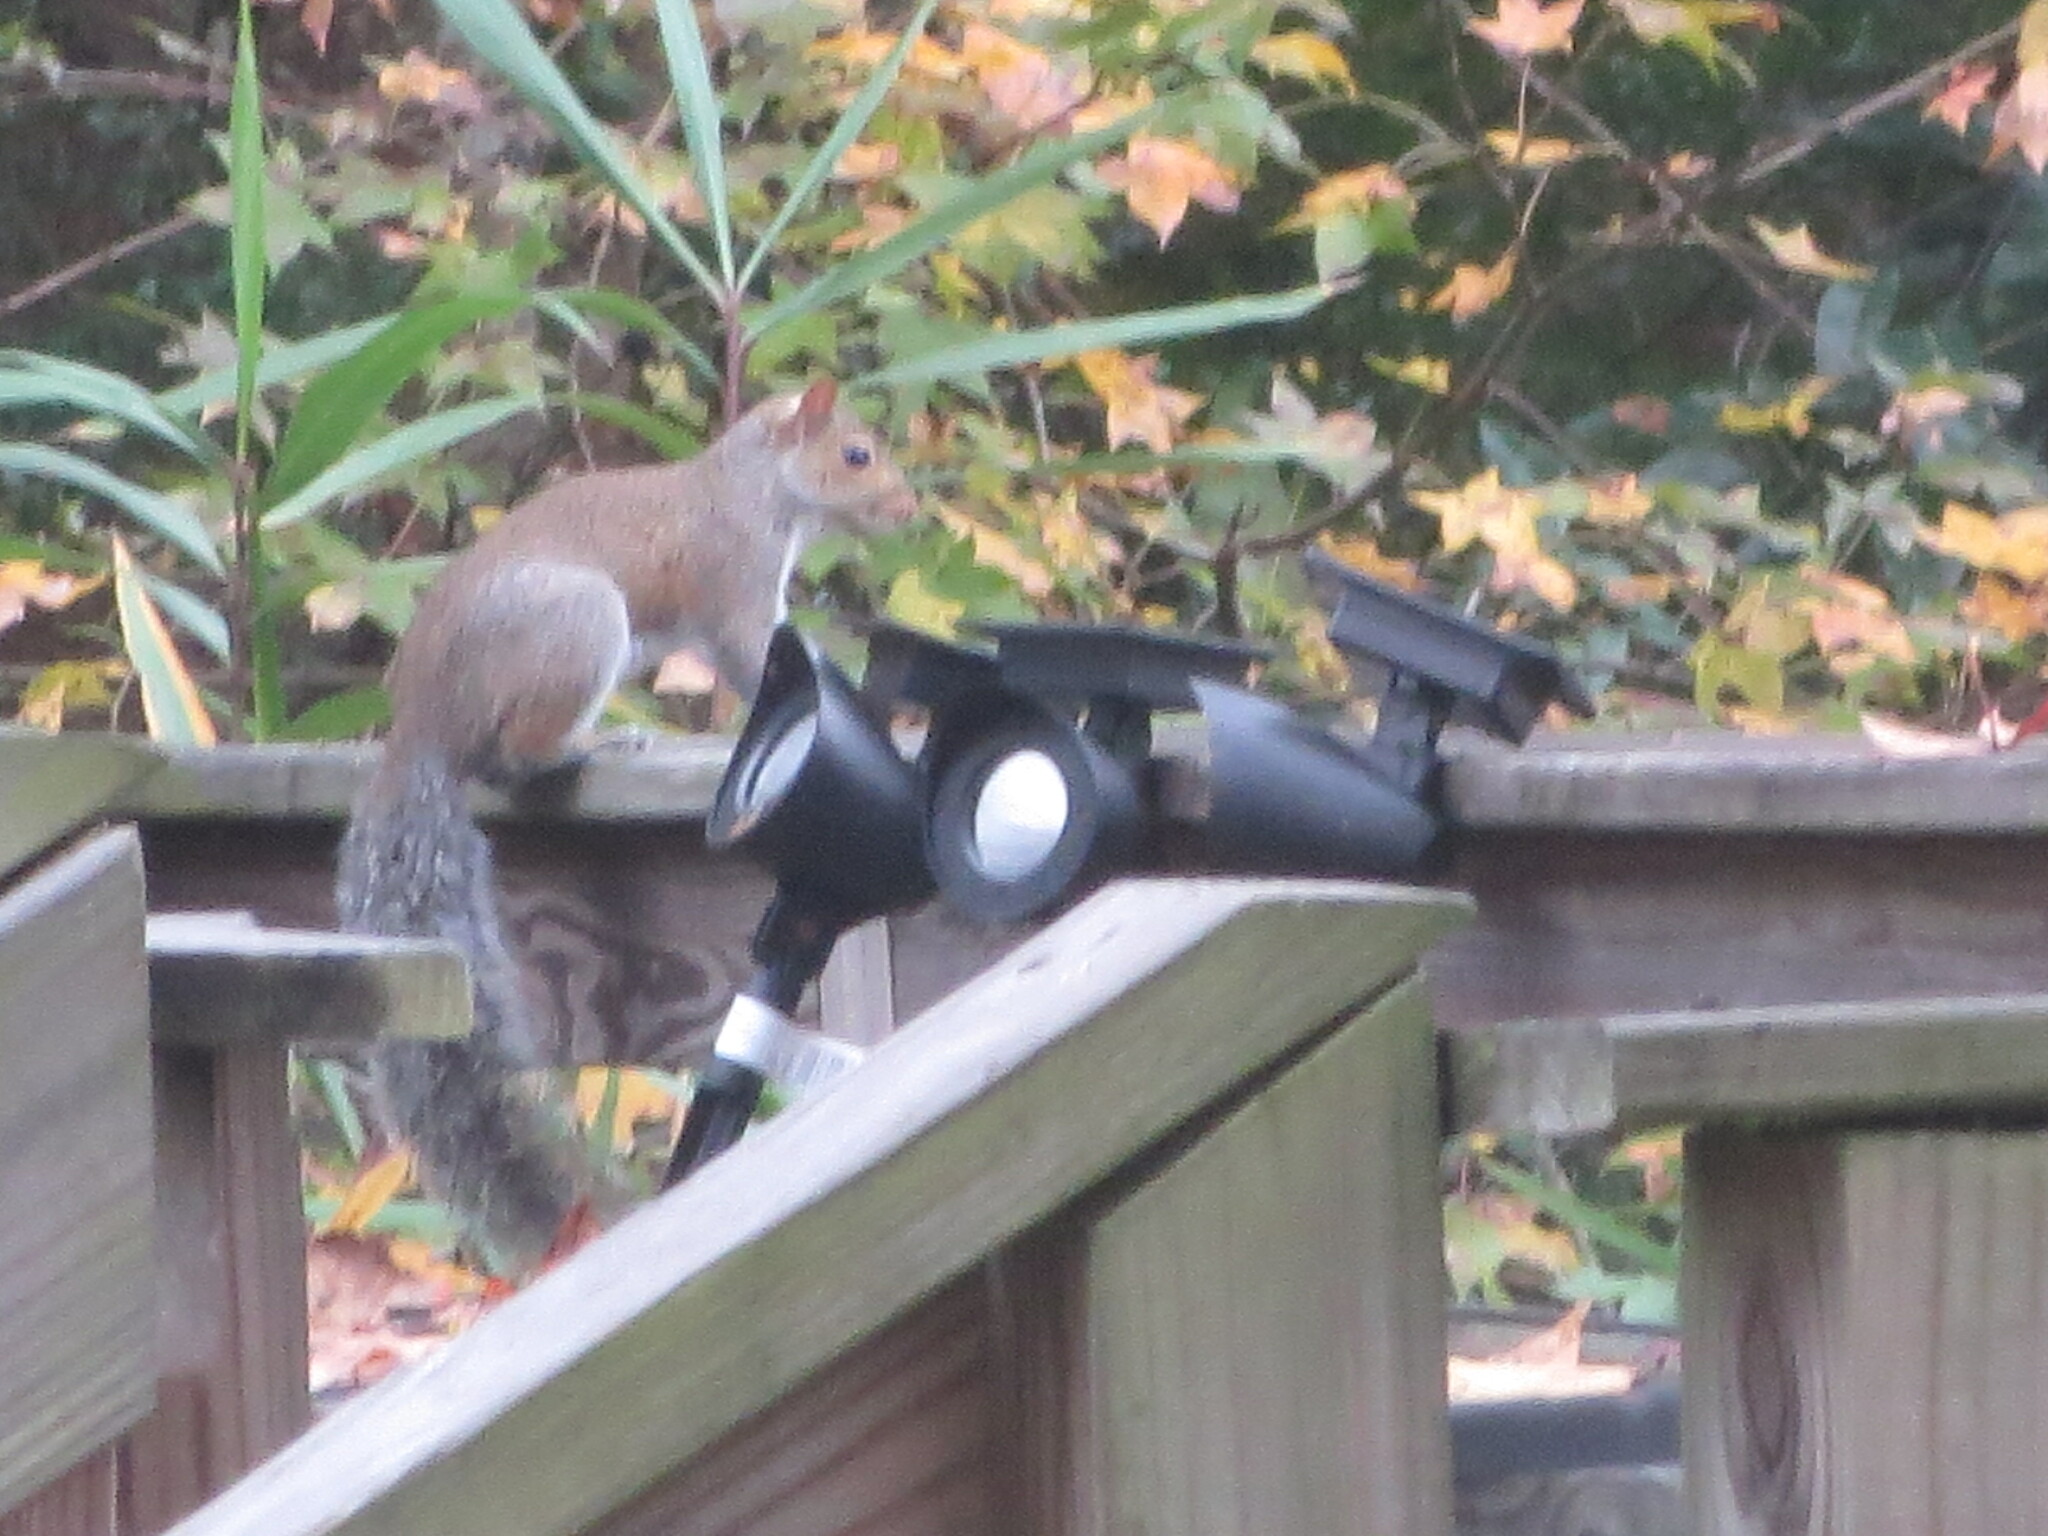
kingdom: Animalia
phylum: Chordata
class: Mammalia
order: Rodentia
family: Sciuridae
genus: Sciurus
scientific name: Sciurus carolinensis
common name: Eastern gray squirrel
